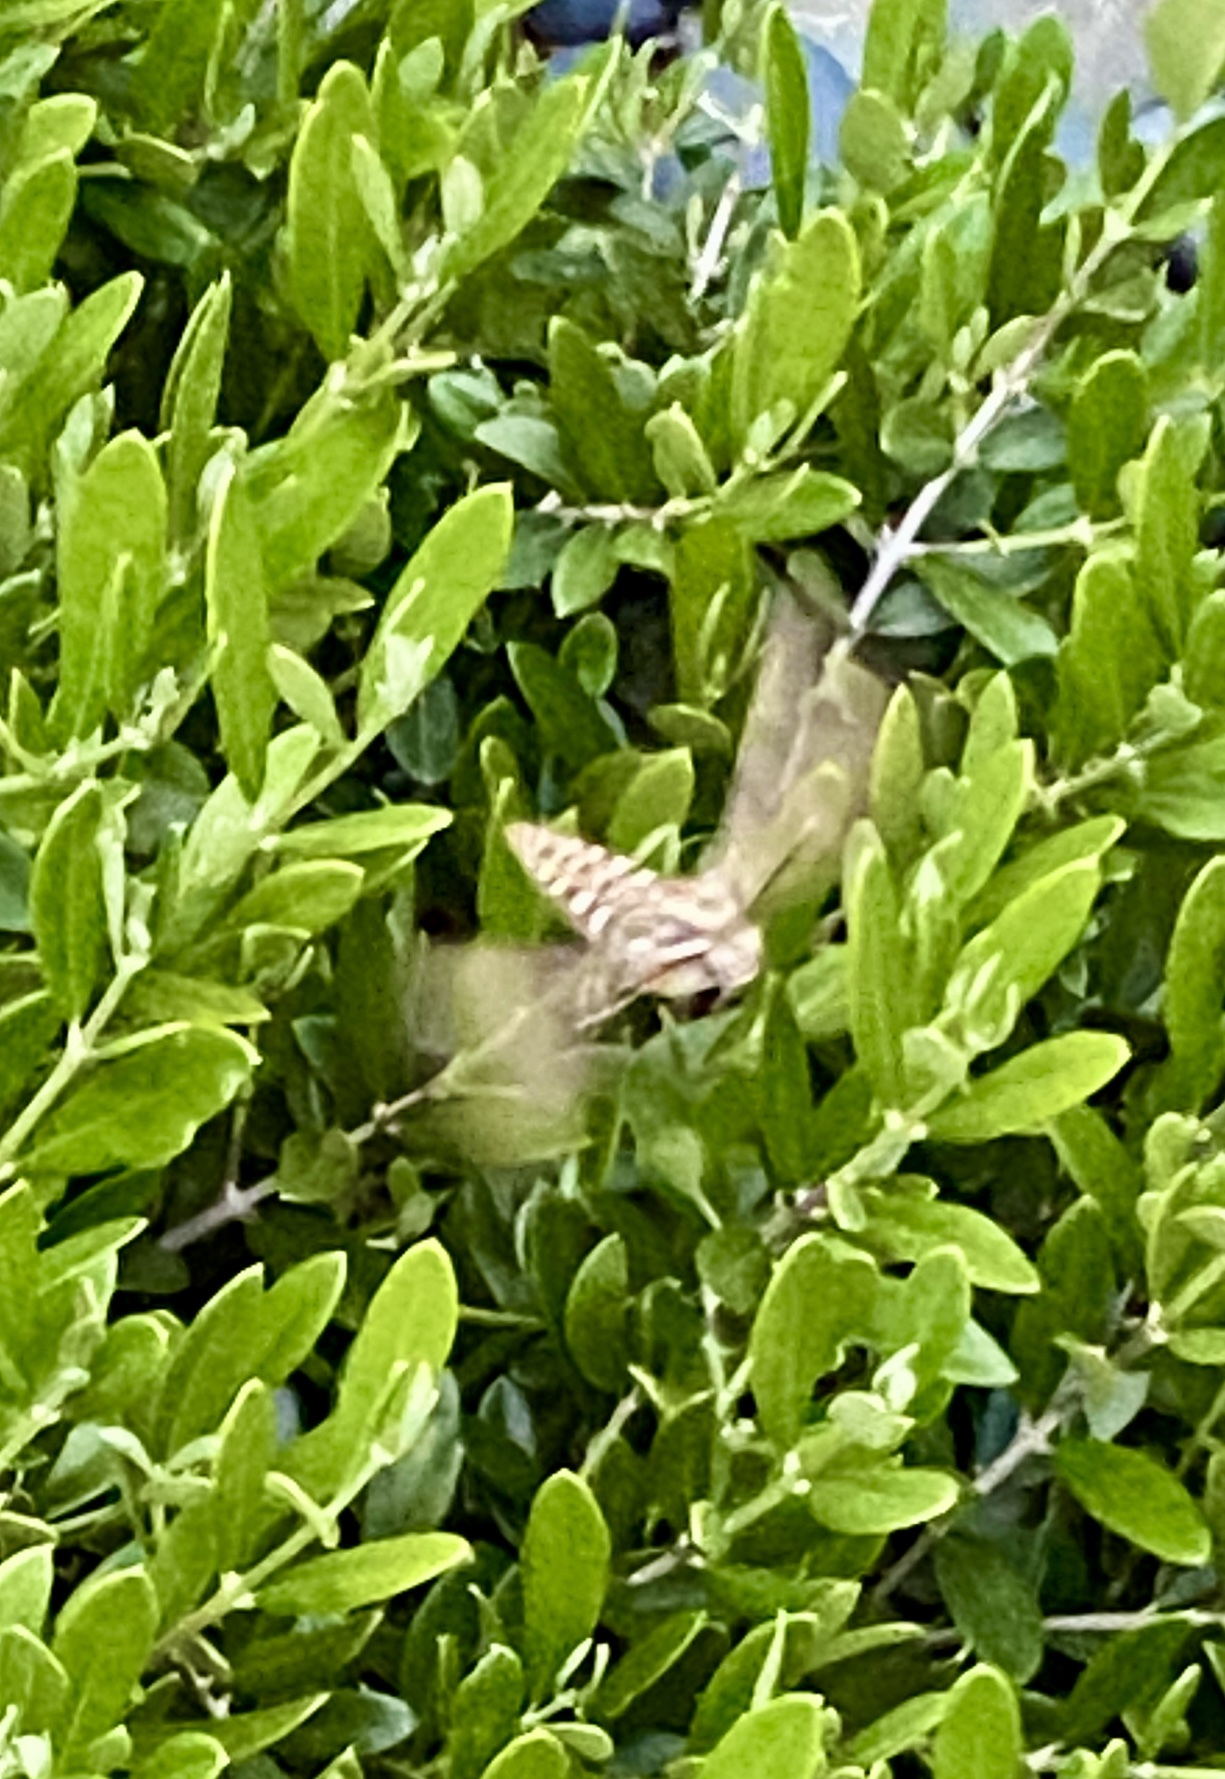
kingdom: Animalia
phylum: Arthropoda
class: Insecta
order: Lepidoptera
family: Sphingidae
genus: Hyles
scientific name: Hyles lineata
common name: White-lined sphinx
